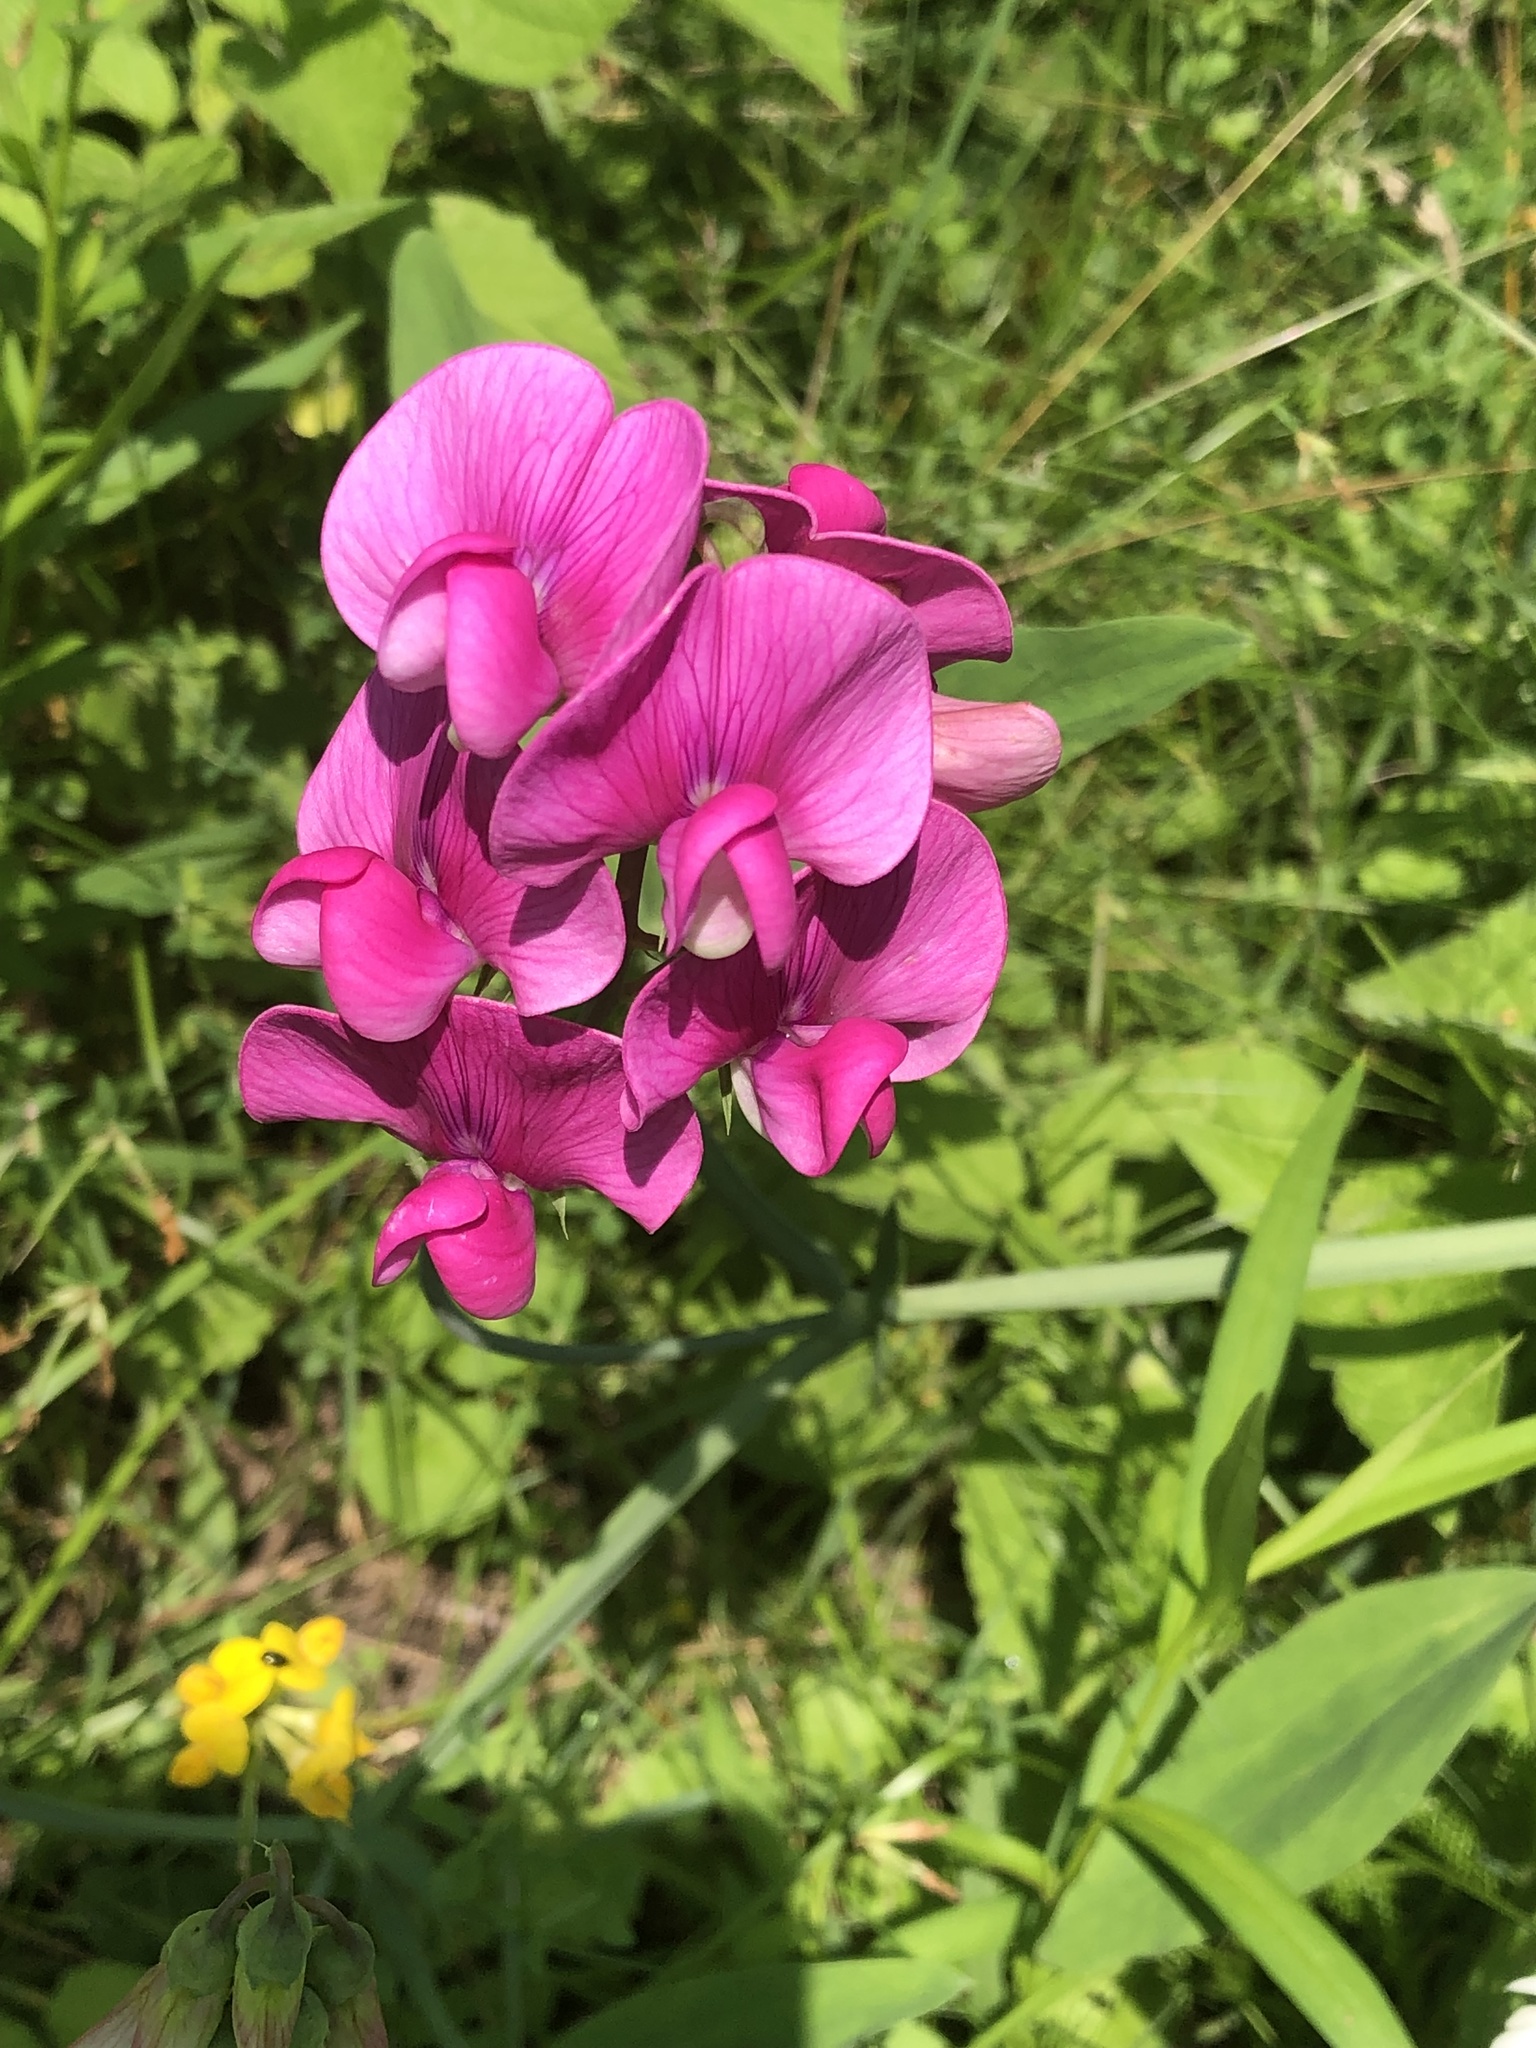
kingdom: Plantae
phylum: Tracheophyta
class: Magnoliopsida
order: Fabales
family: Fabaceae
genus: Lathyrus
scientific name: Lathyrus latifolius
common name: Perennial pea
